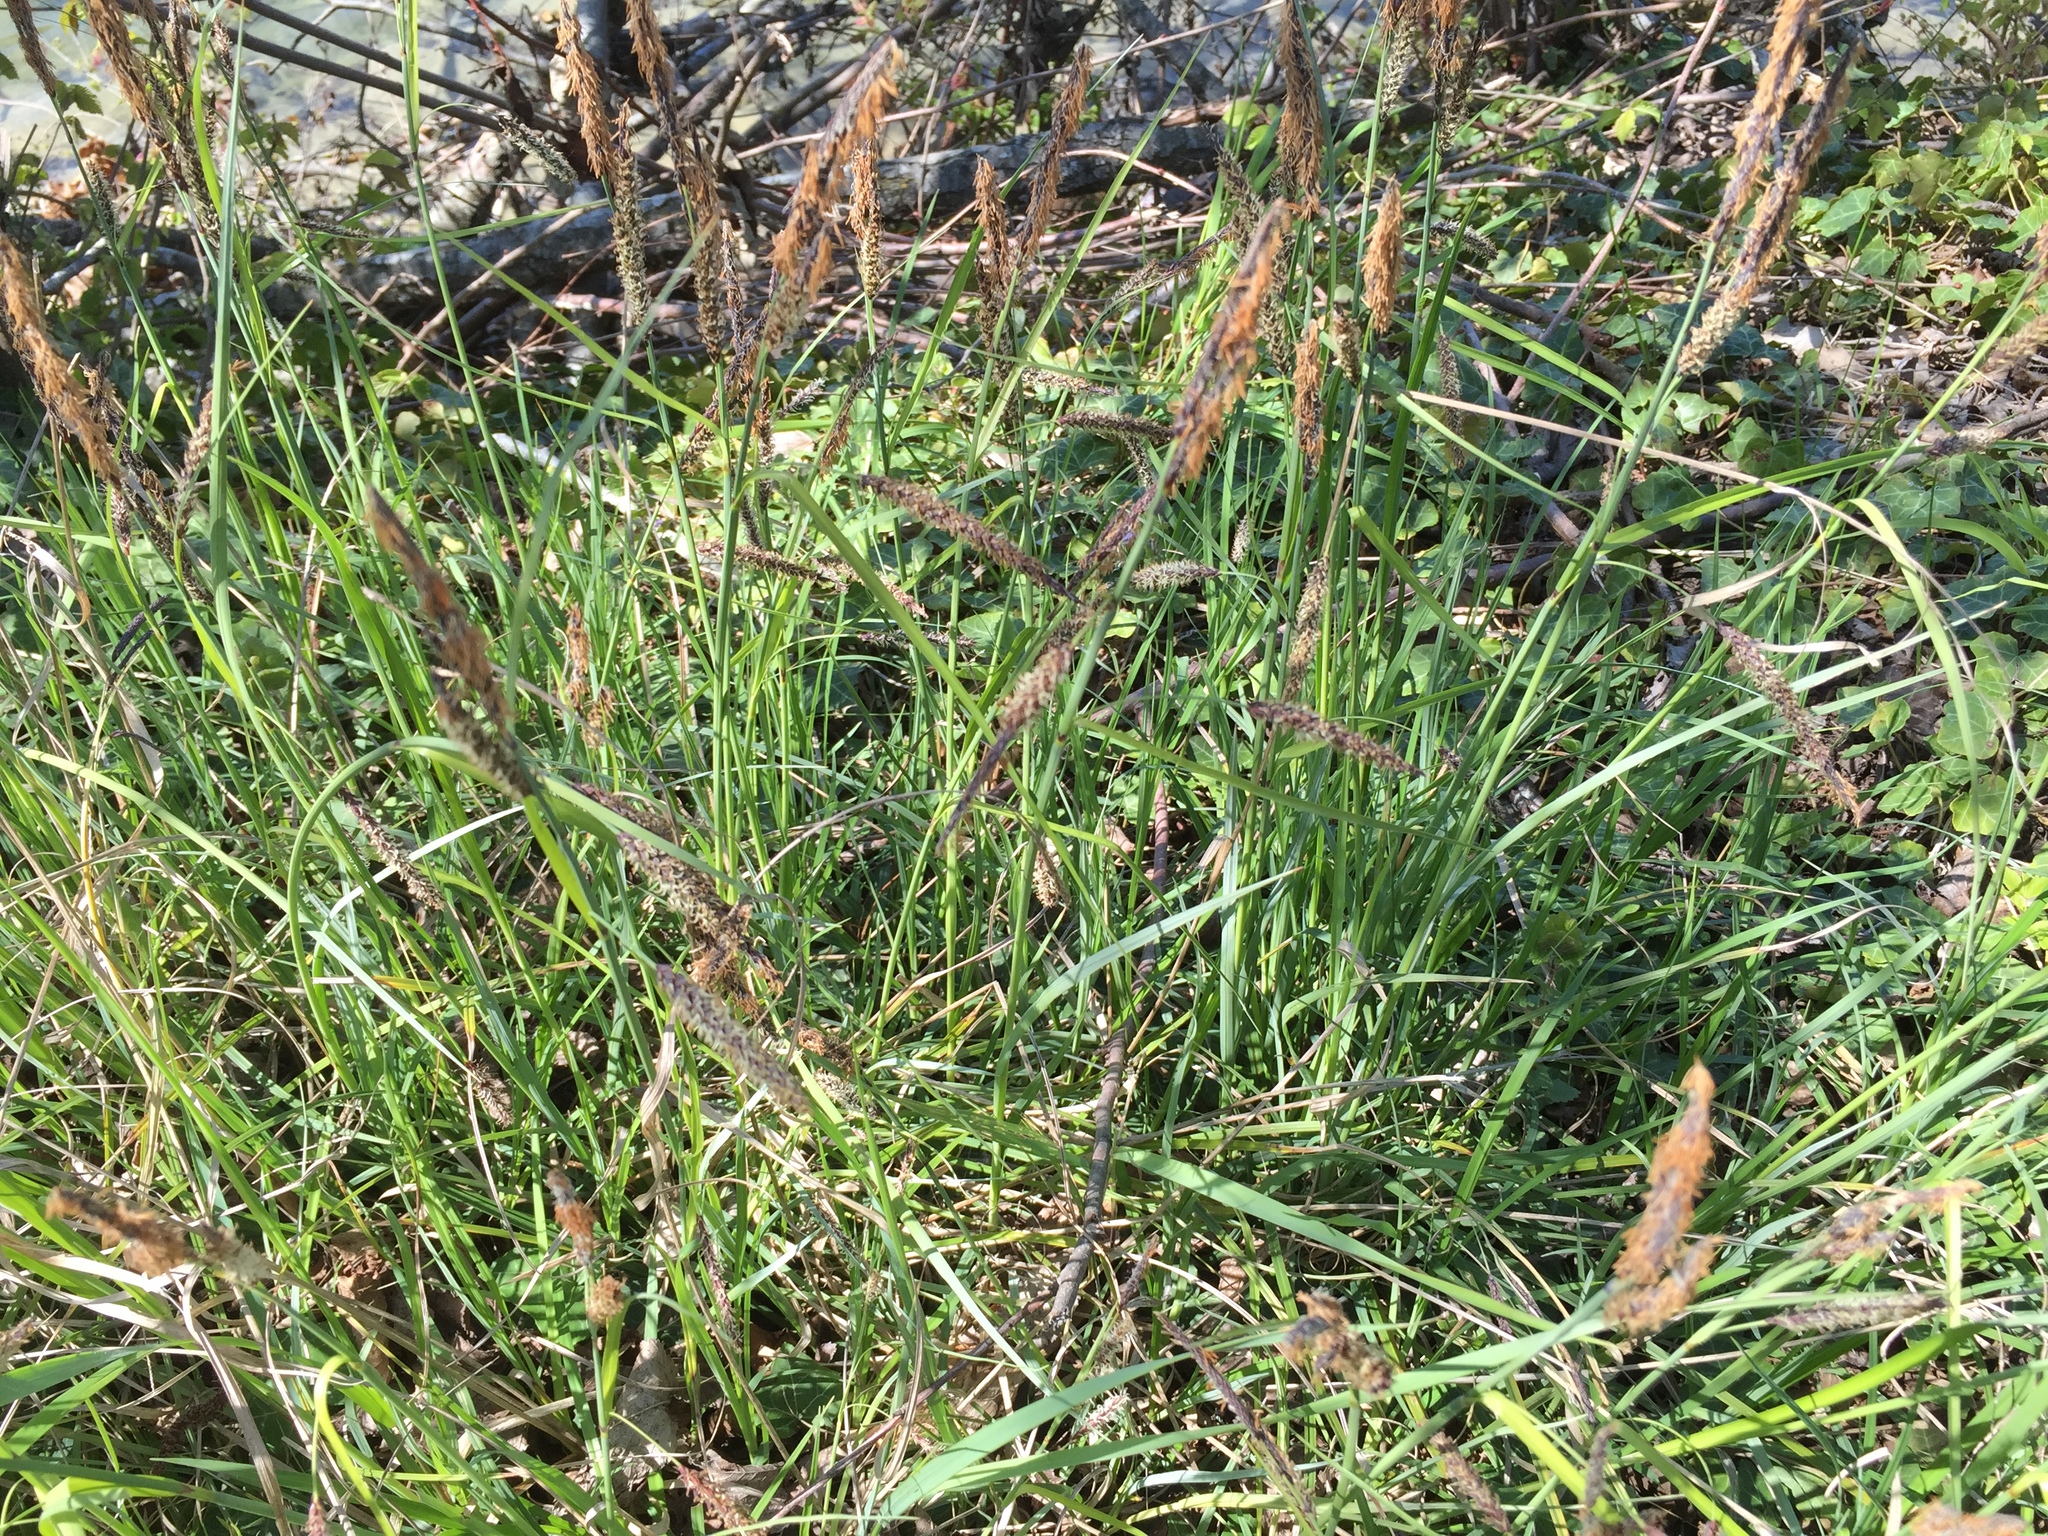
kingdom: Plantae
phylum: Tracheophyta
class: Liliopsida
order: Poales
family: Cyperaceae
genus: Carex
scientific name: Carex flacca
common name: Glaucous sedge
